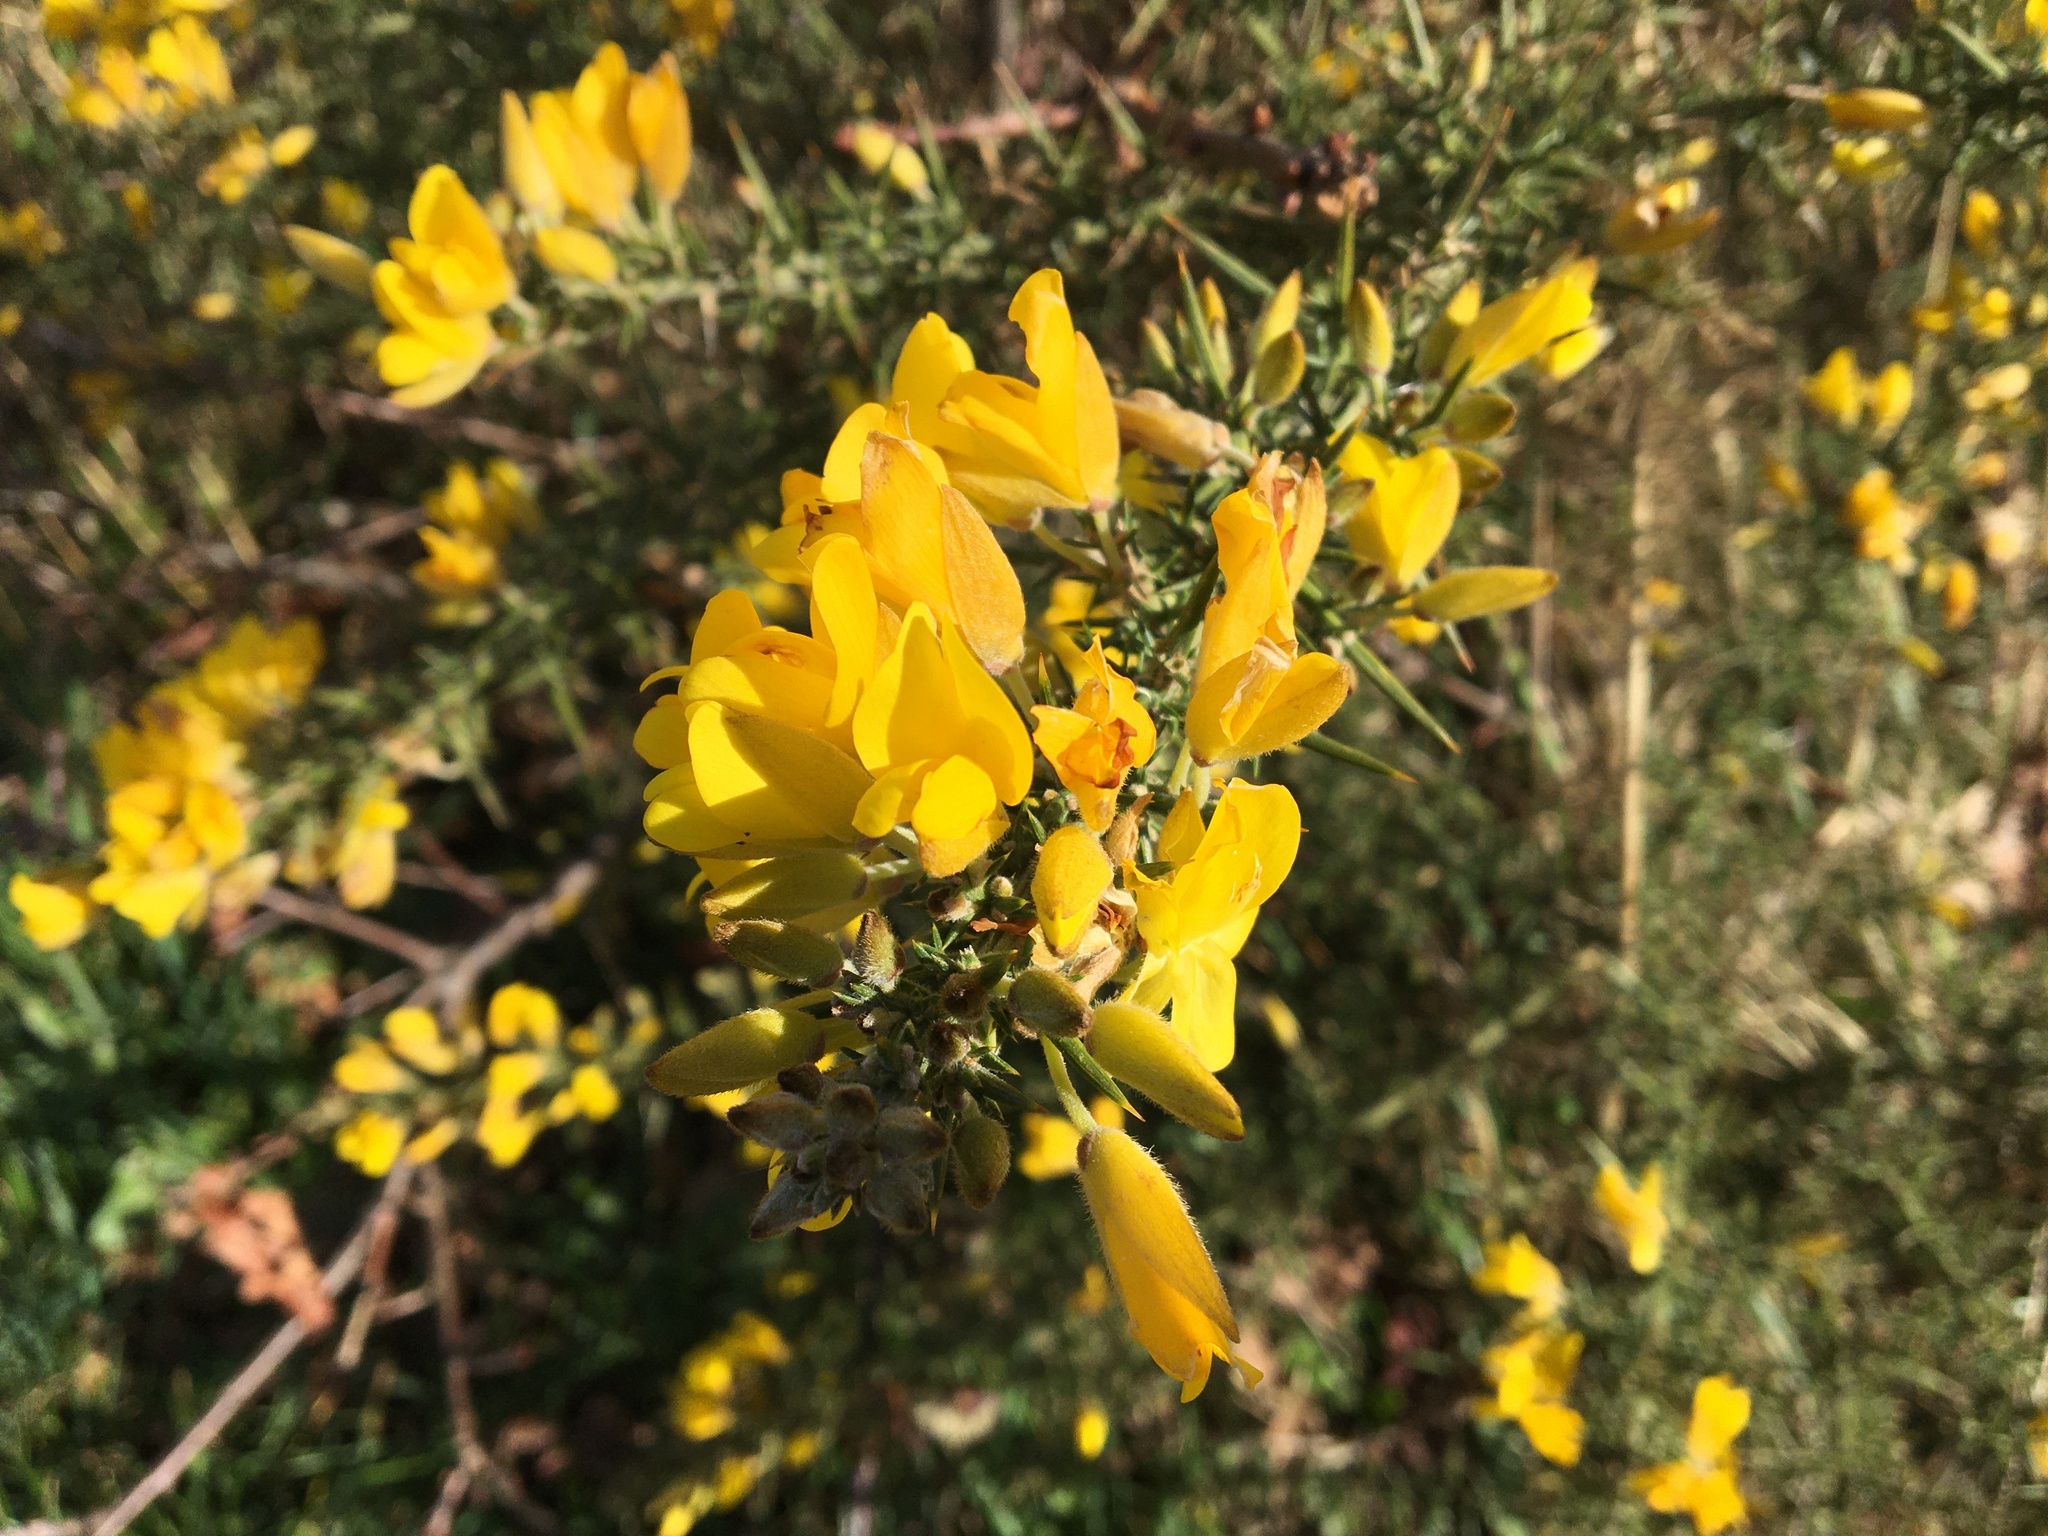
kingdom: Plantae
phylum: Tracheophyta
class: Magnoliopsida
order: Fabales
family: Fabaceae
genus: Ulex
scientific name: Ulex europaeus
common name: Common gorse
